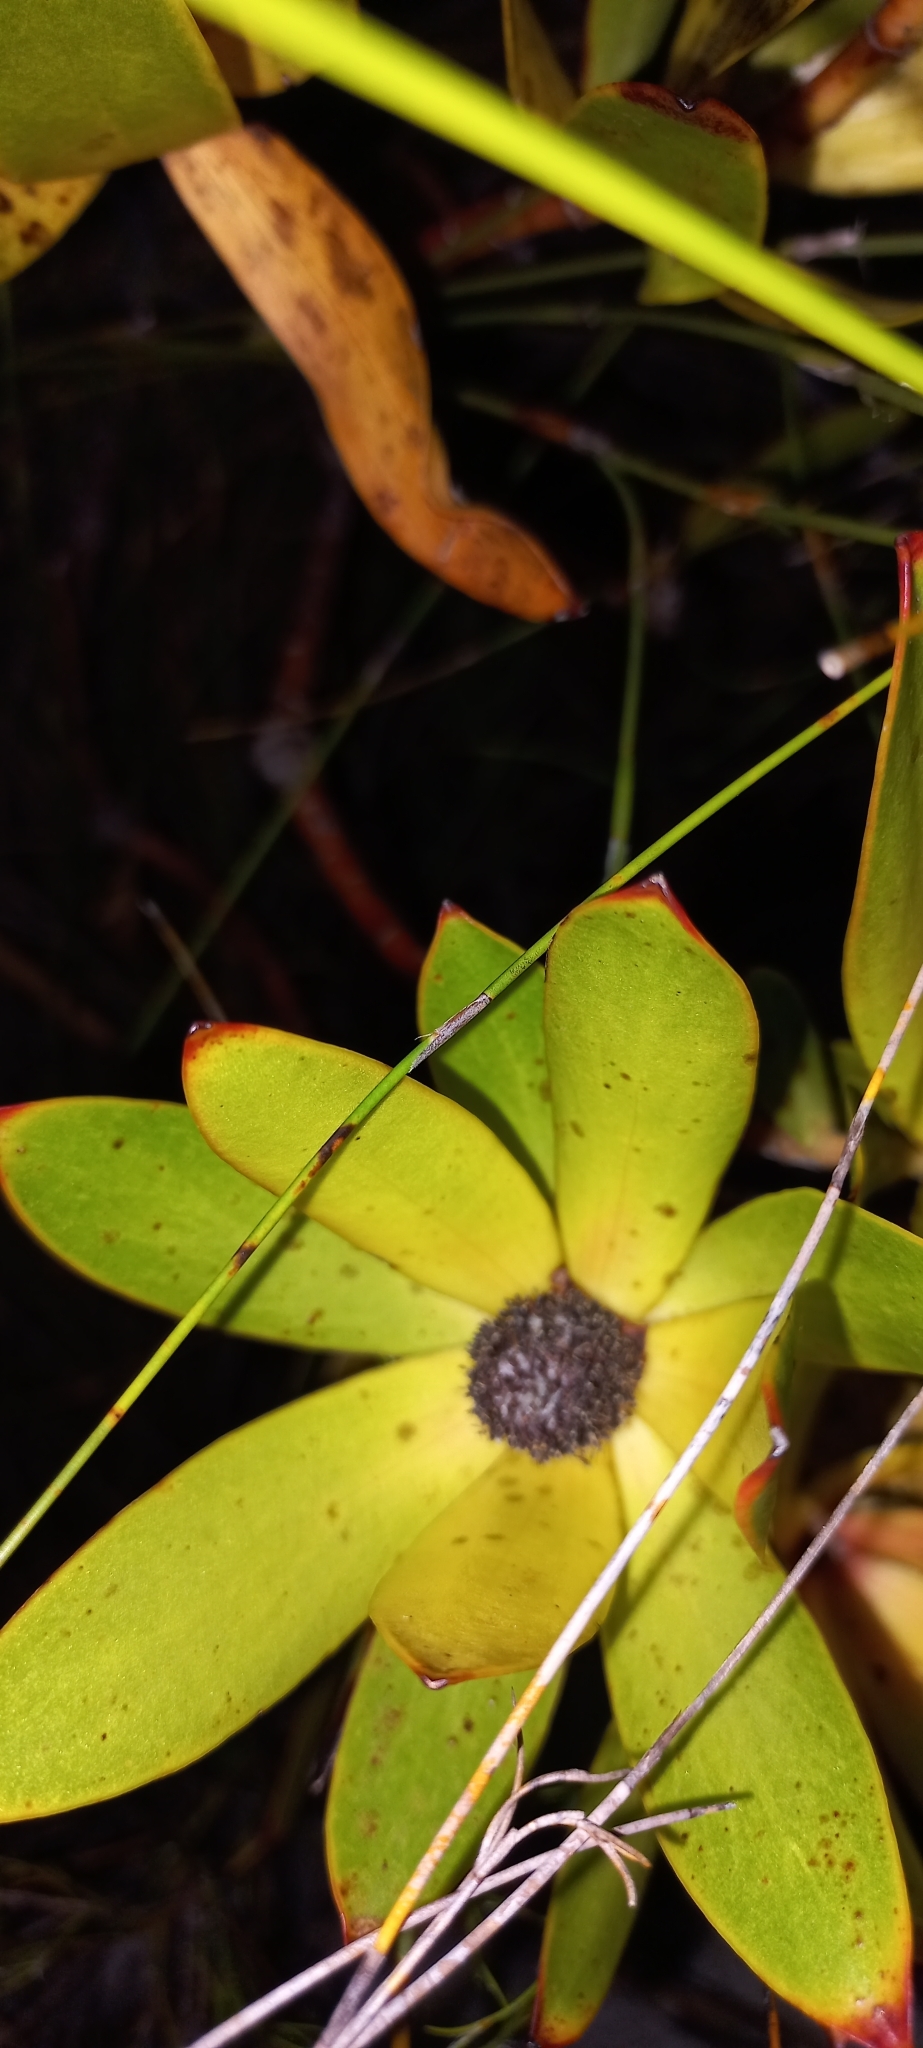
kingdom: Plantae
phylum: Tracheophyta
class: Magnoliopsida
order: Proteales
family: Proteaceae
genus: Leucadendron
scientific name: Leucadendron gandogeri
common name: Broad-leaf conebush
